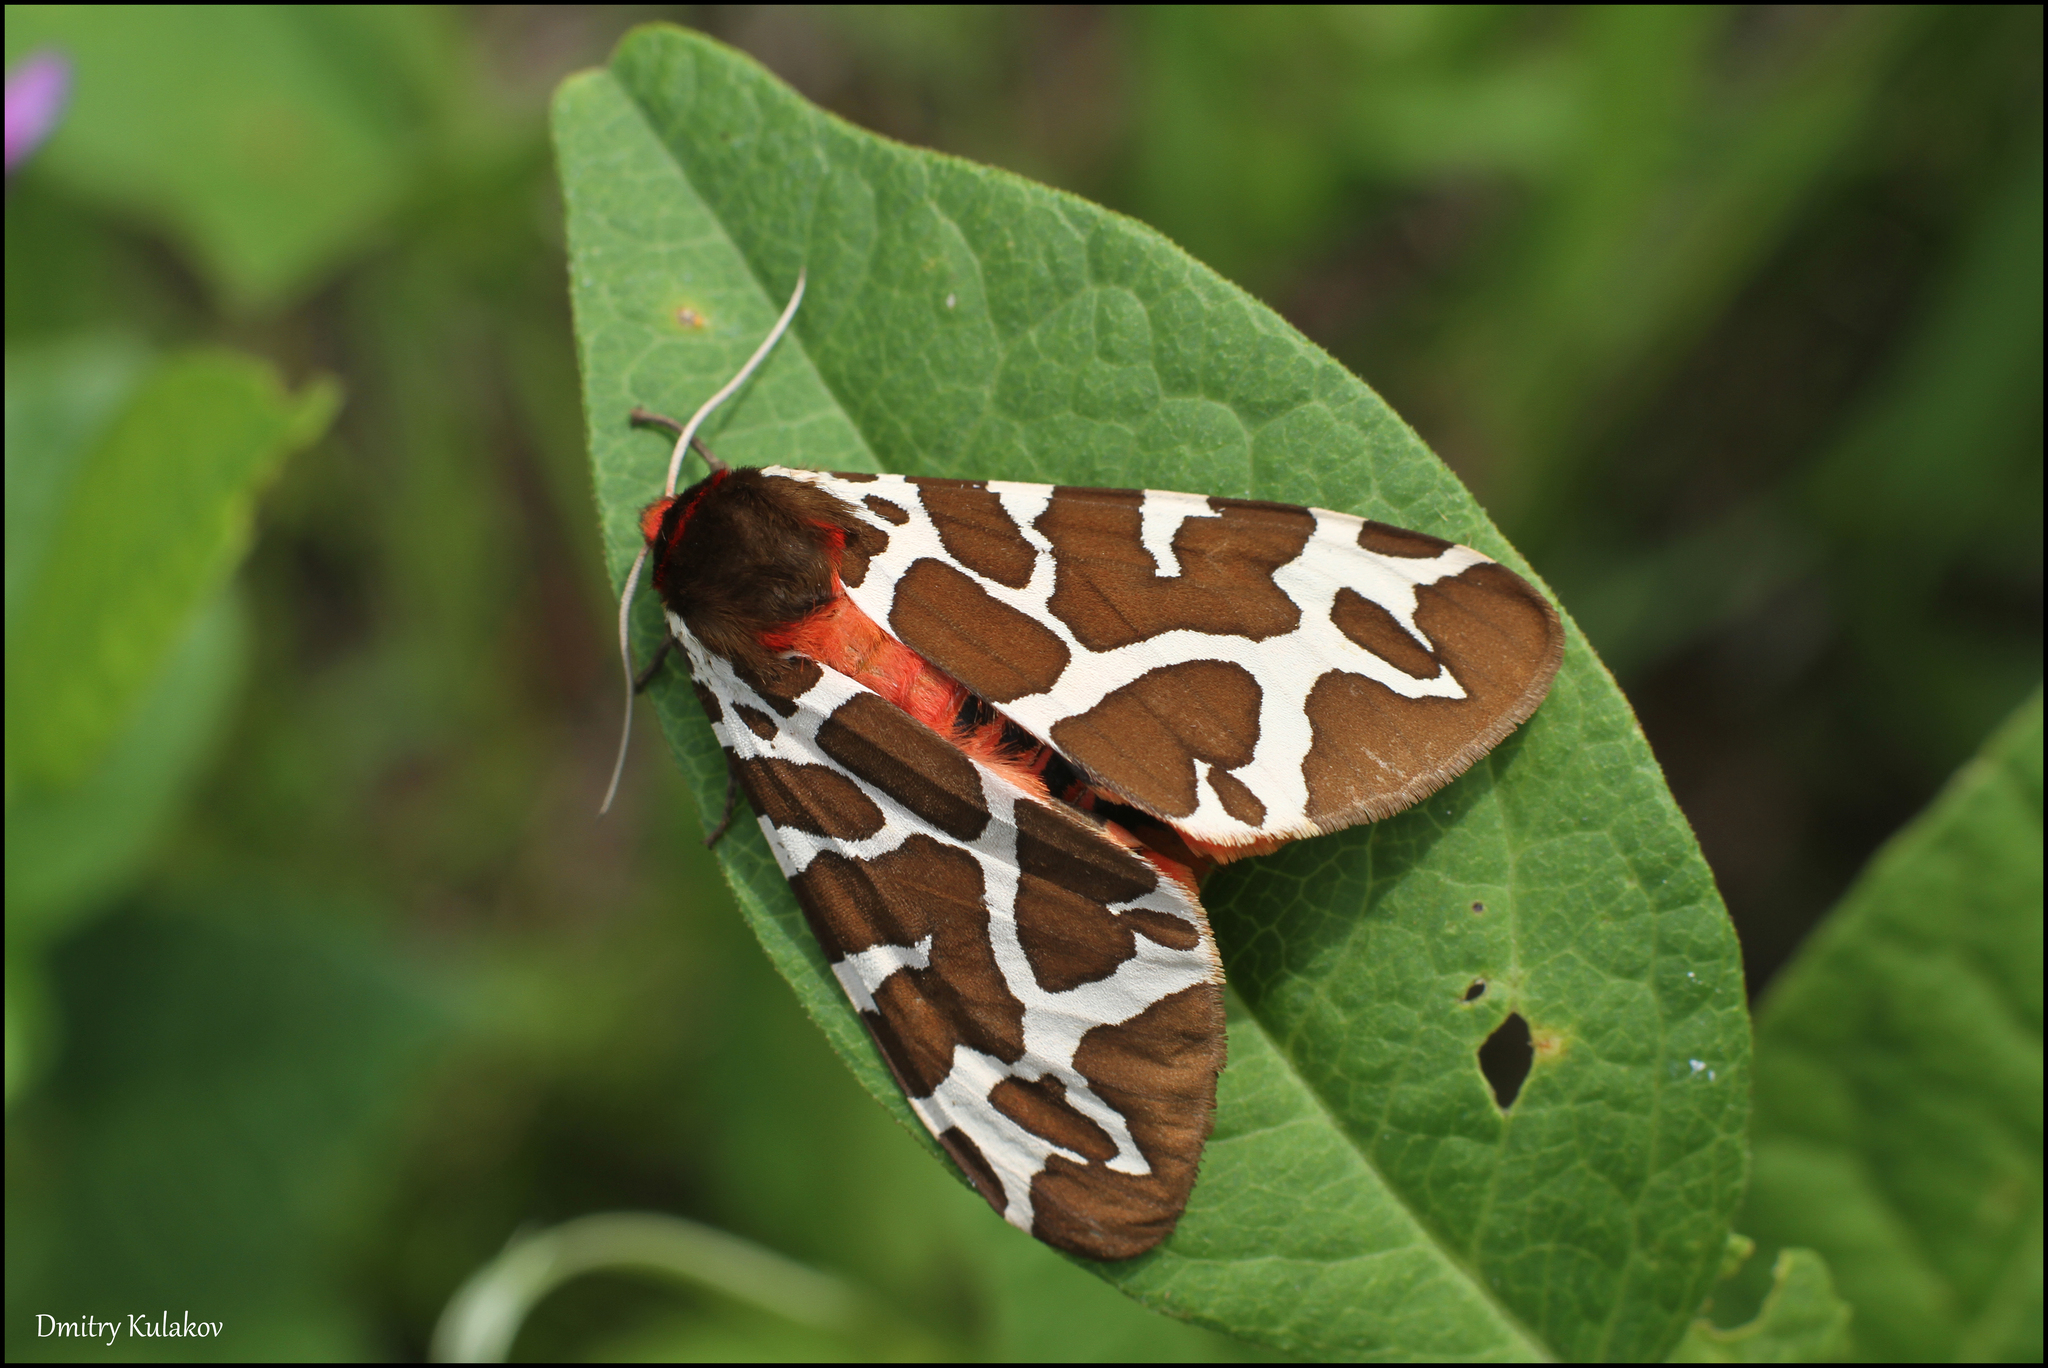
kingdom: Animalia
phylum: Arthropoda
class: Insecta
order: Lepidoptera
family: Erebidae
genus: Arctia
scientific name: Arctia caja
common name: Garden tiger
